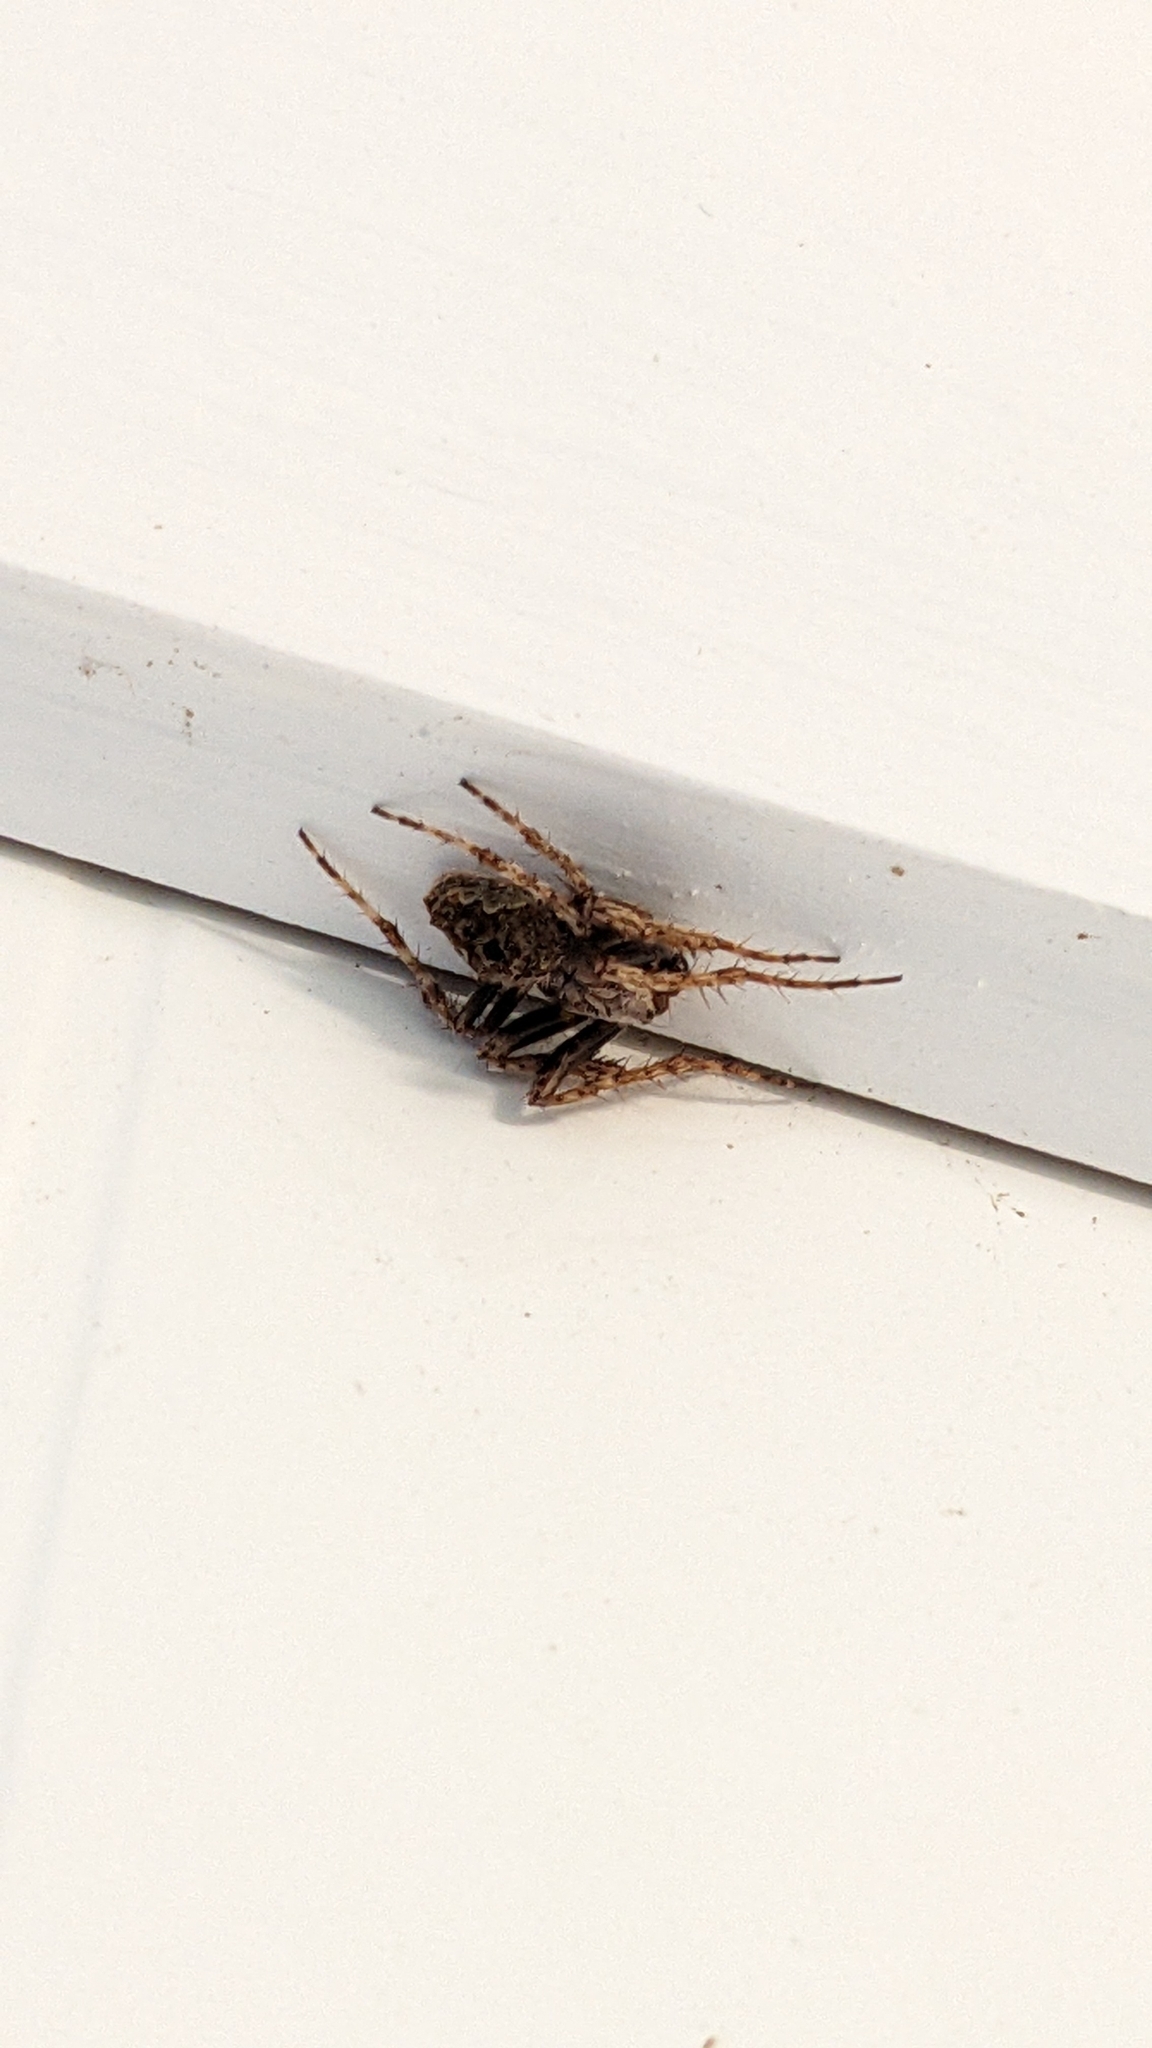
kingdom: Animalia
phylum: Arthropoda
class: Arachnida
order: Araneae
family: Araneidae
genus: Eriophora
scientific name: Eriophora pustulosa
